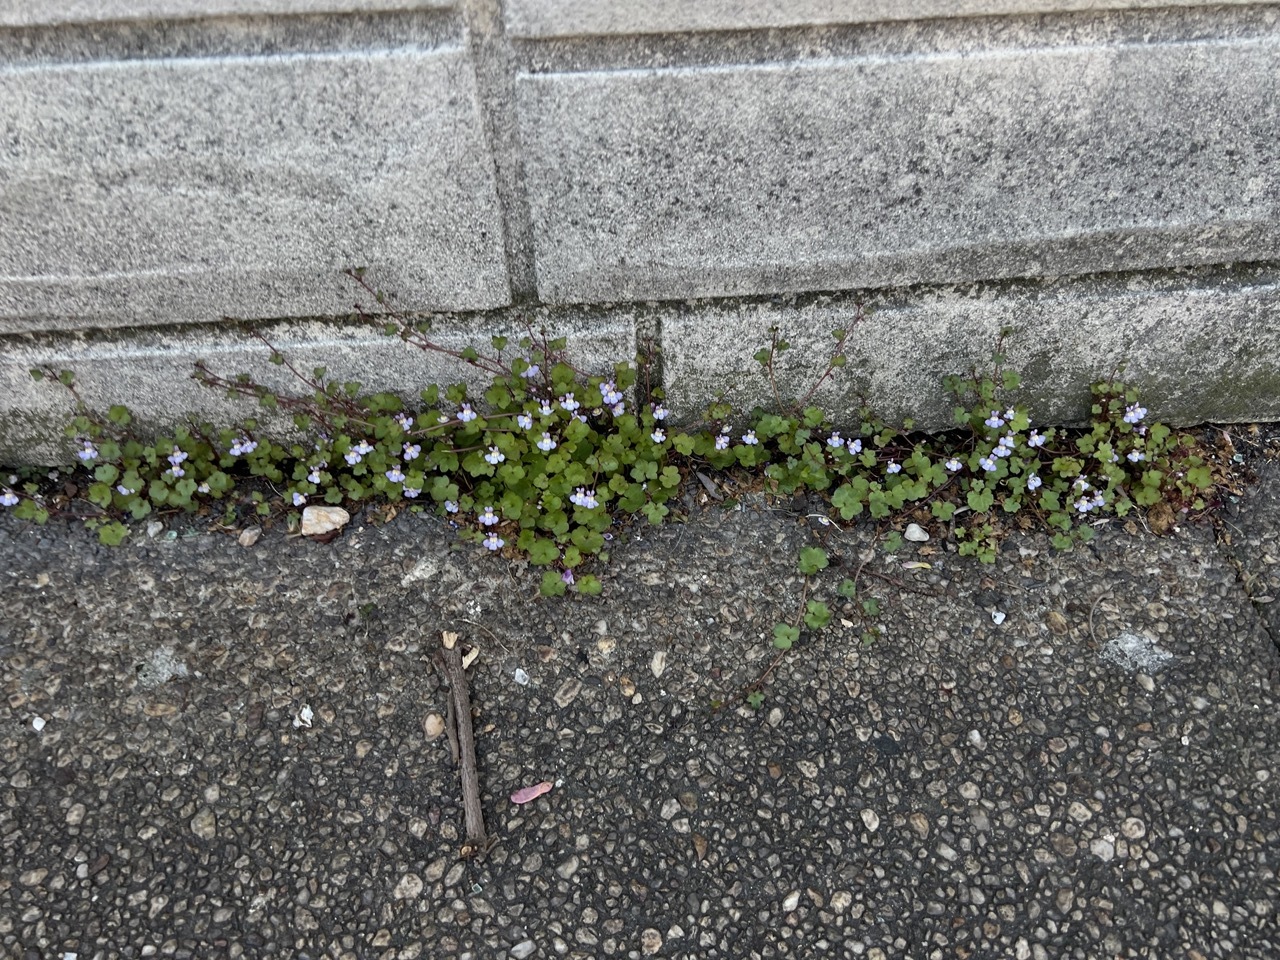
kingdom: Plantae
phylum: Tracheophyta
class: Magnoliopsida
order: Lamiales
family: Plantaginaceae
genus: Cymbalaria
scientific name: Cymbalaria muralis
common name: Ivy-leaved toadflax
